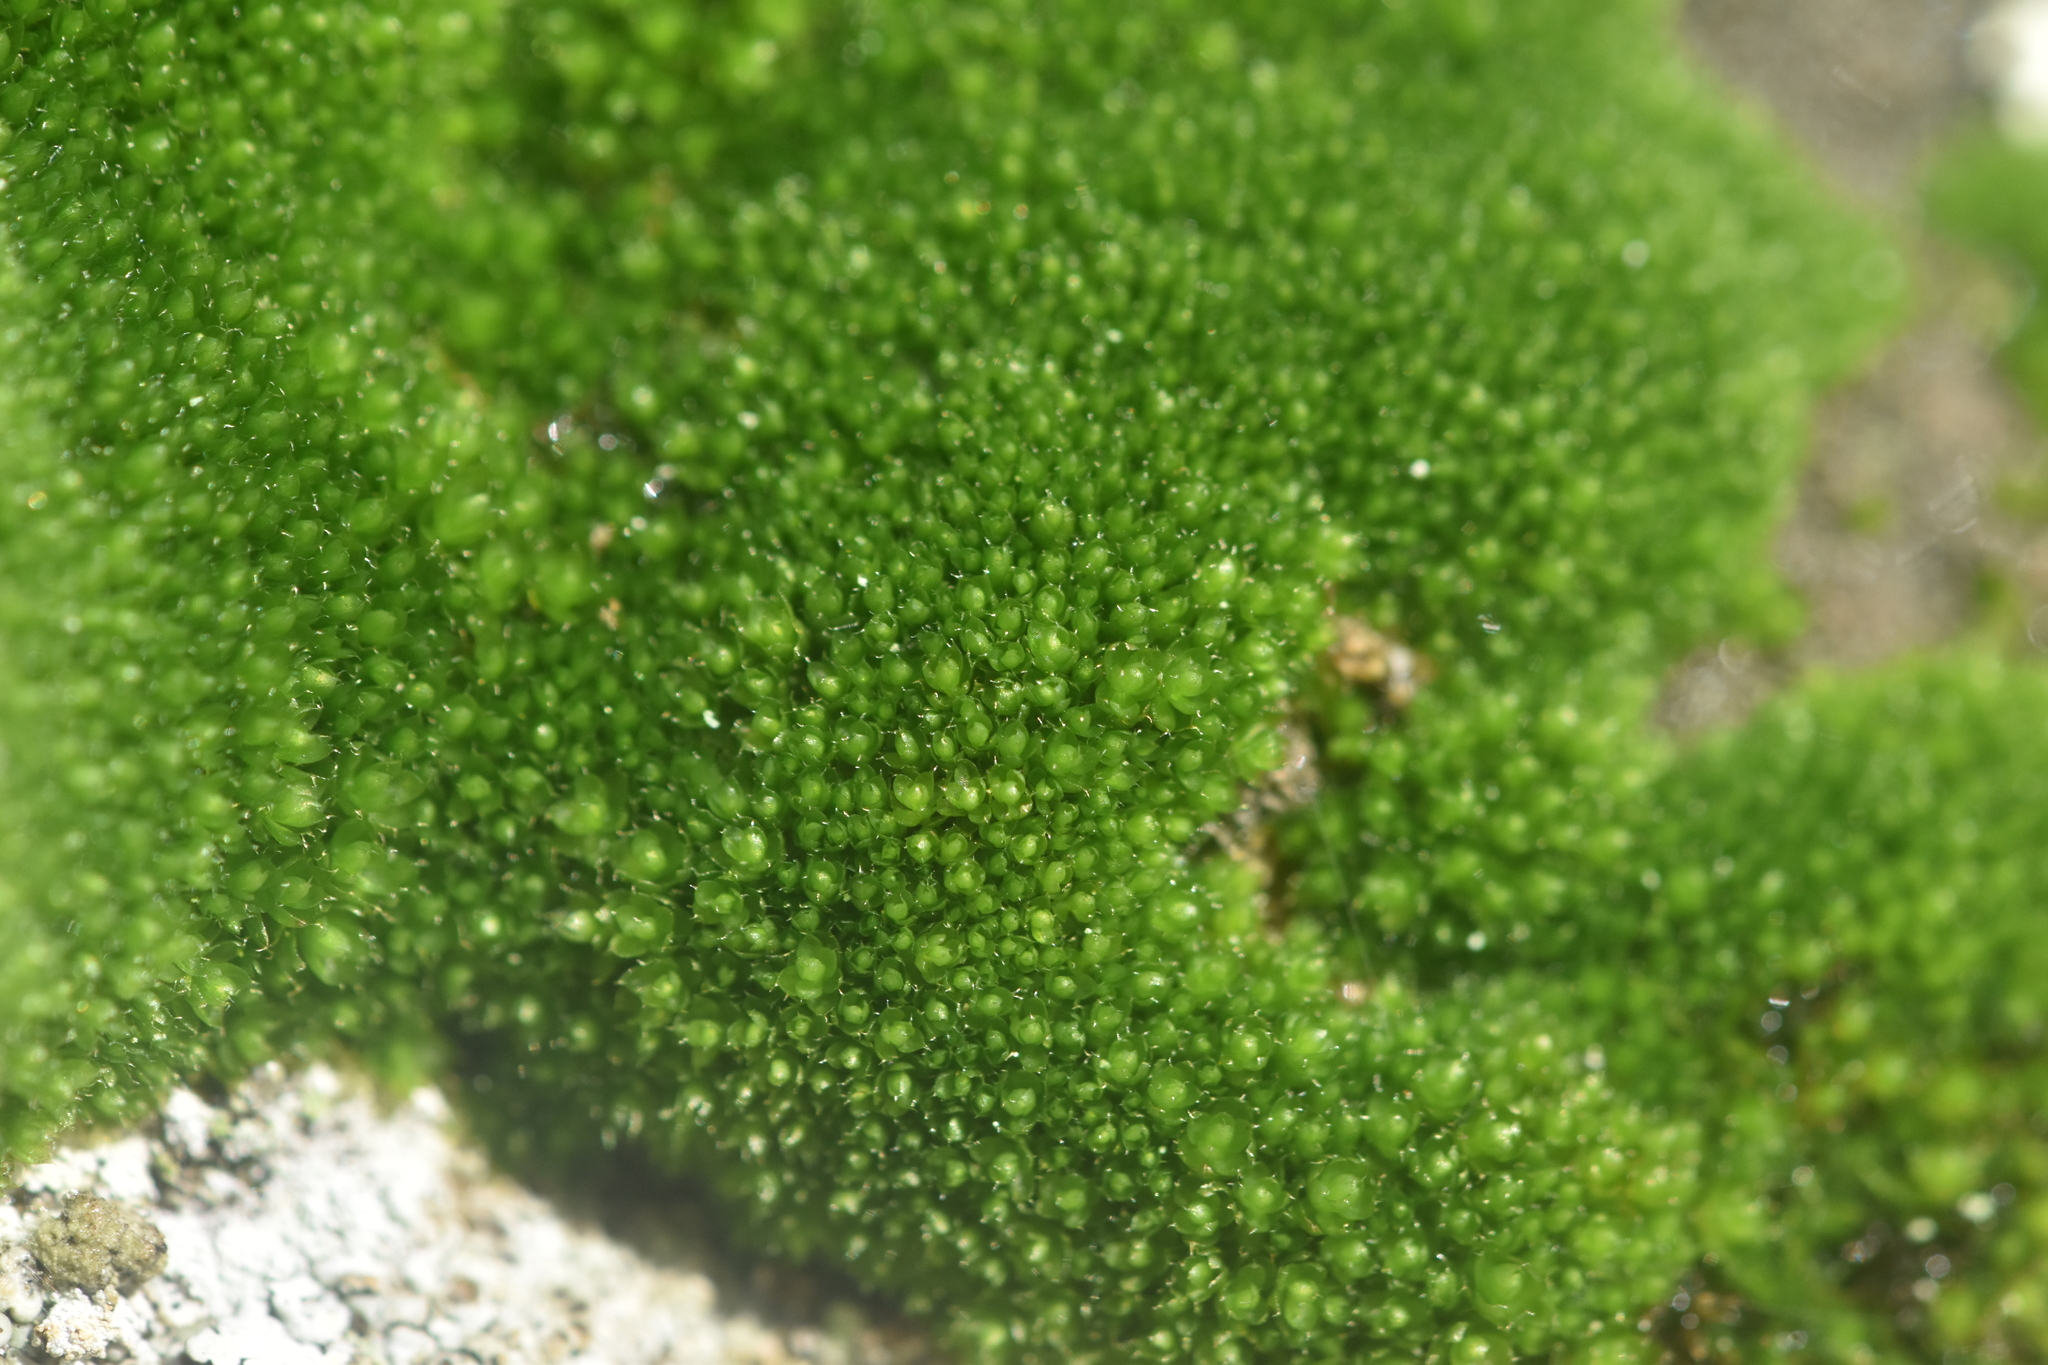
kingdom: Plantae
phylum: Bryophyta
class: Bryopsida
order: Bryales
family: Bryaceae
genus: Rosulabryum
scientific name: Rosulabryum capillare
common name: Capillary thread-moss
